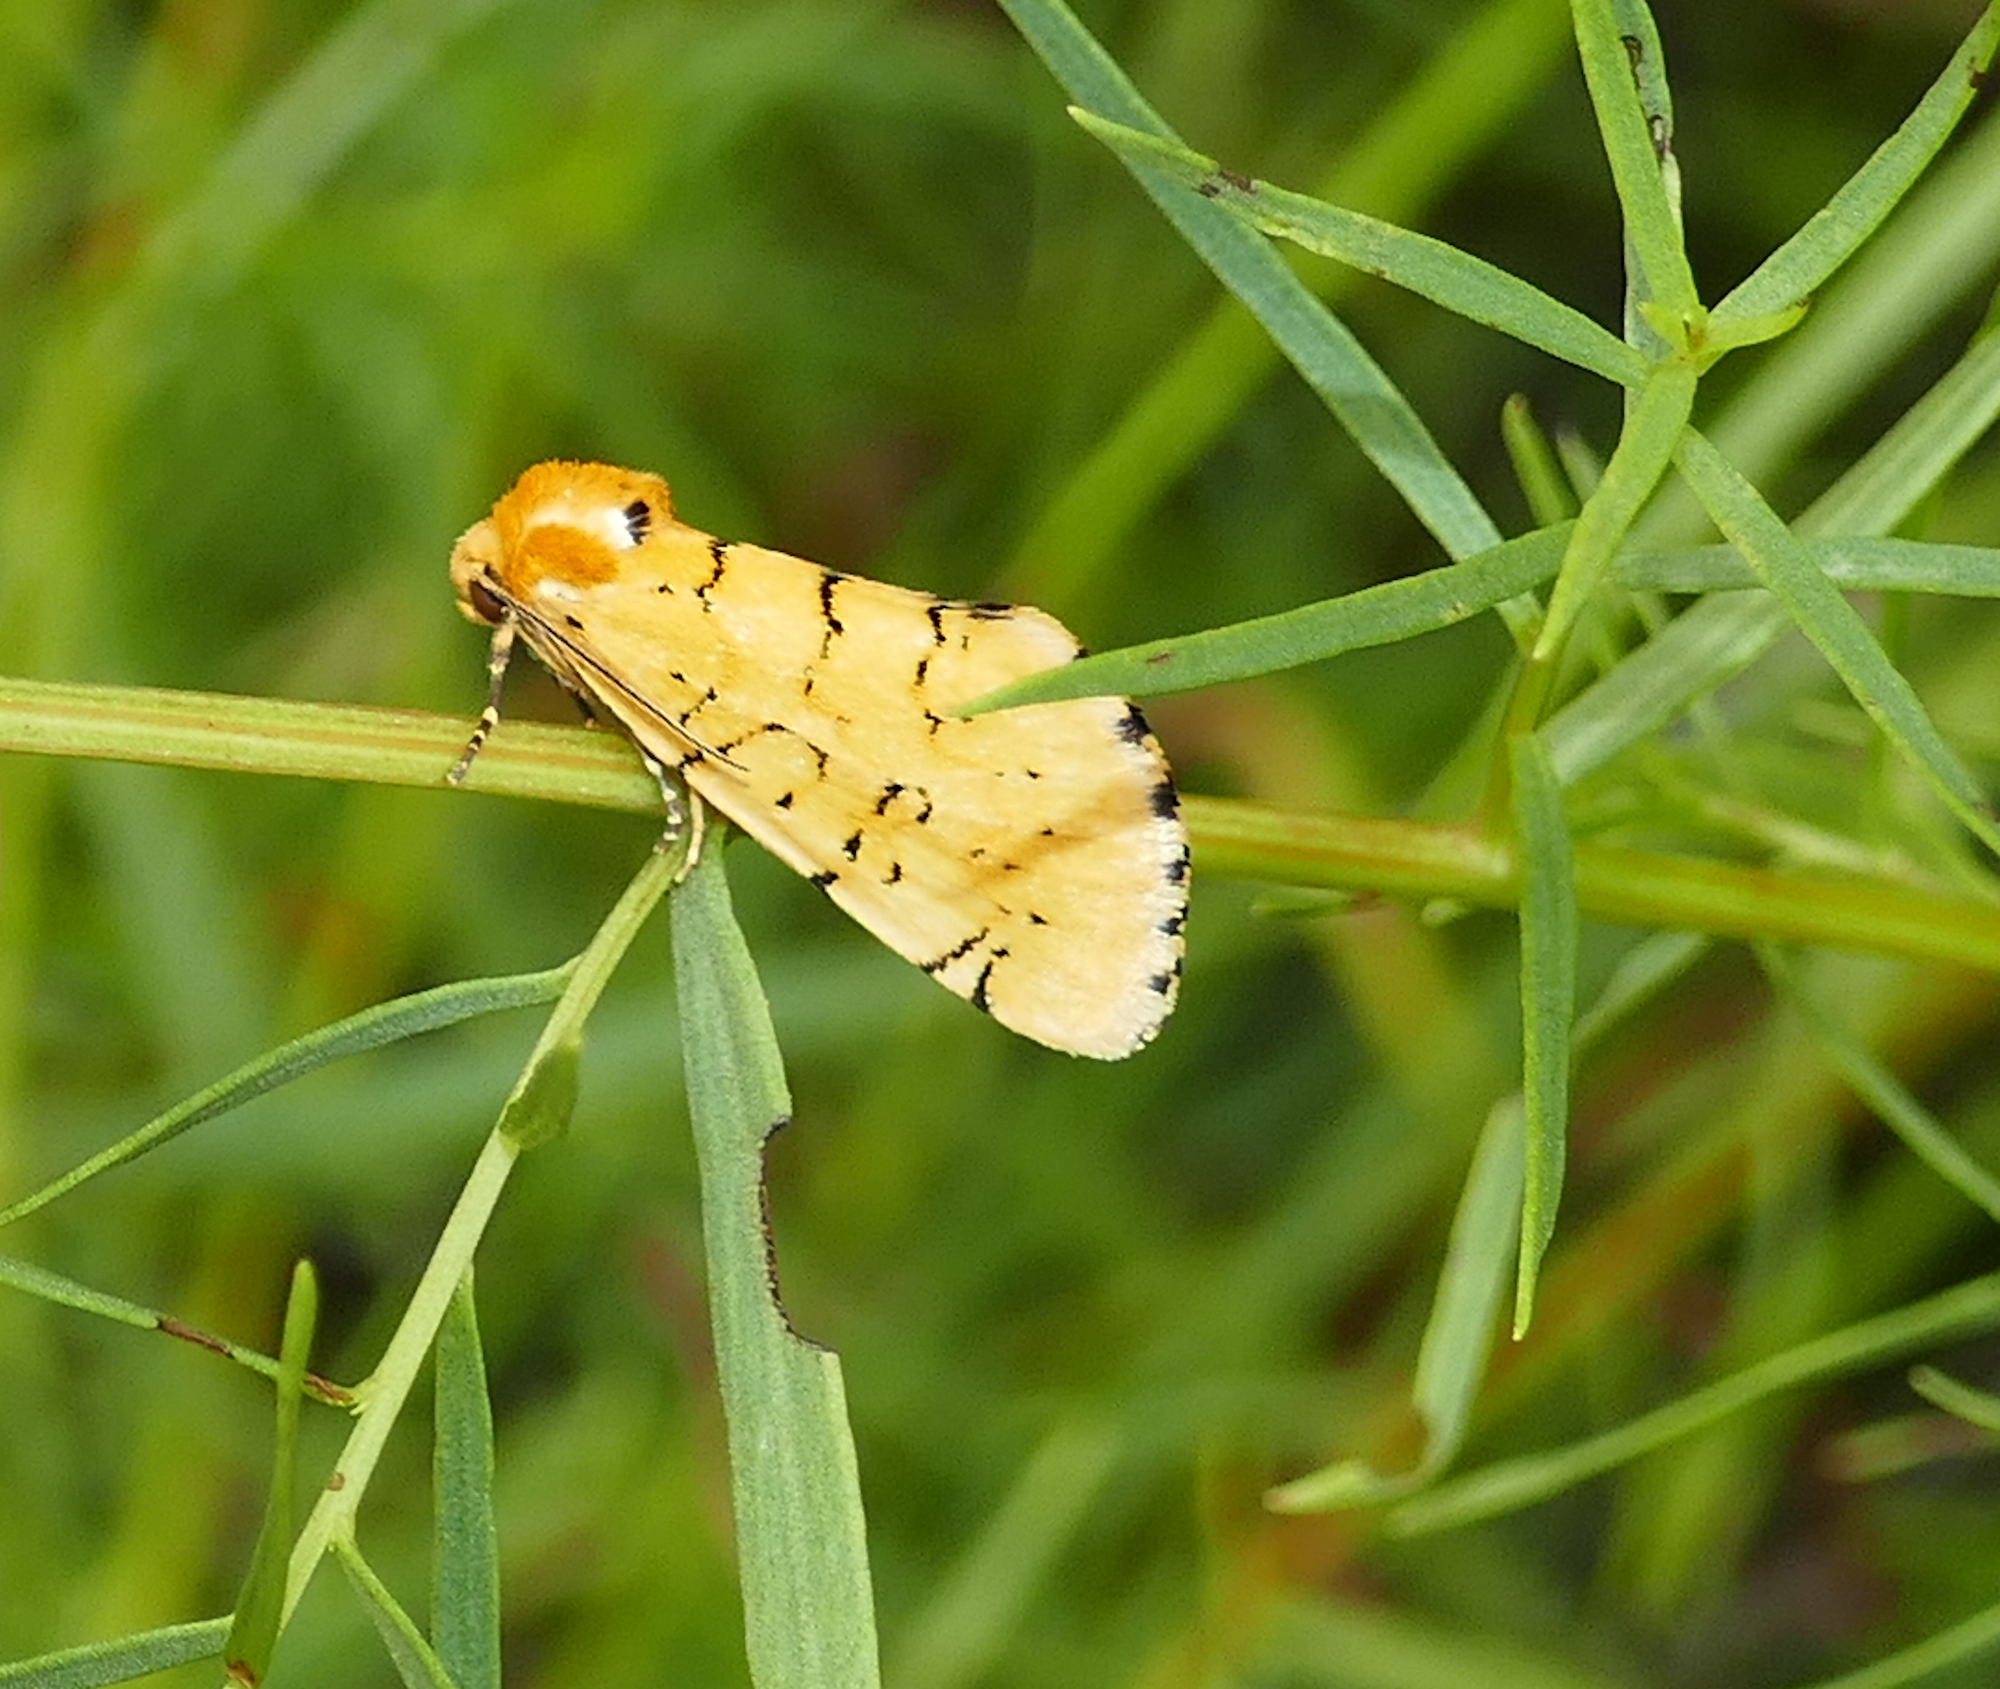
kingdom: Animalia
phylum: Arthropoda
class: Insecta
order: Lepidoptera
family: Noctuidae
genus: Chrysoecia
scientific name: Chrysoecia atrolinea
